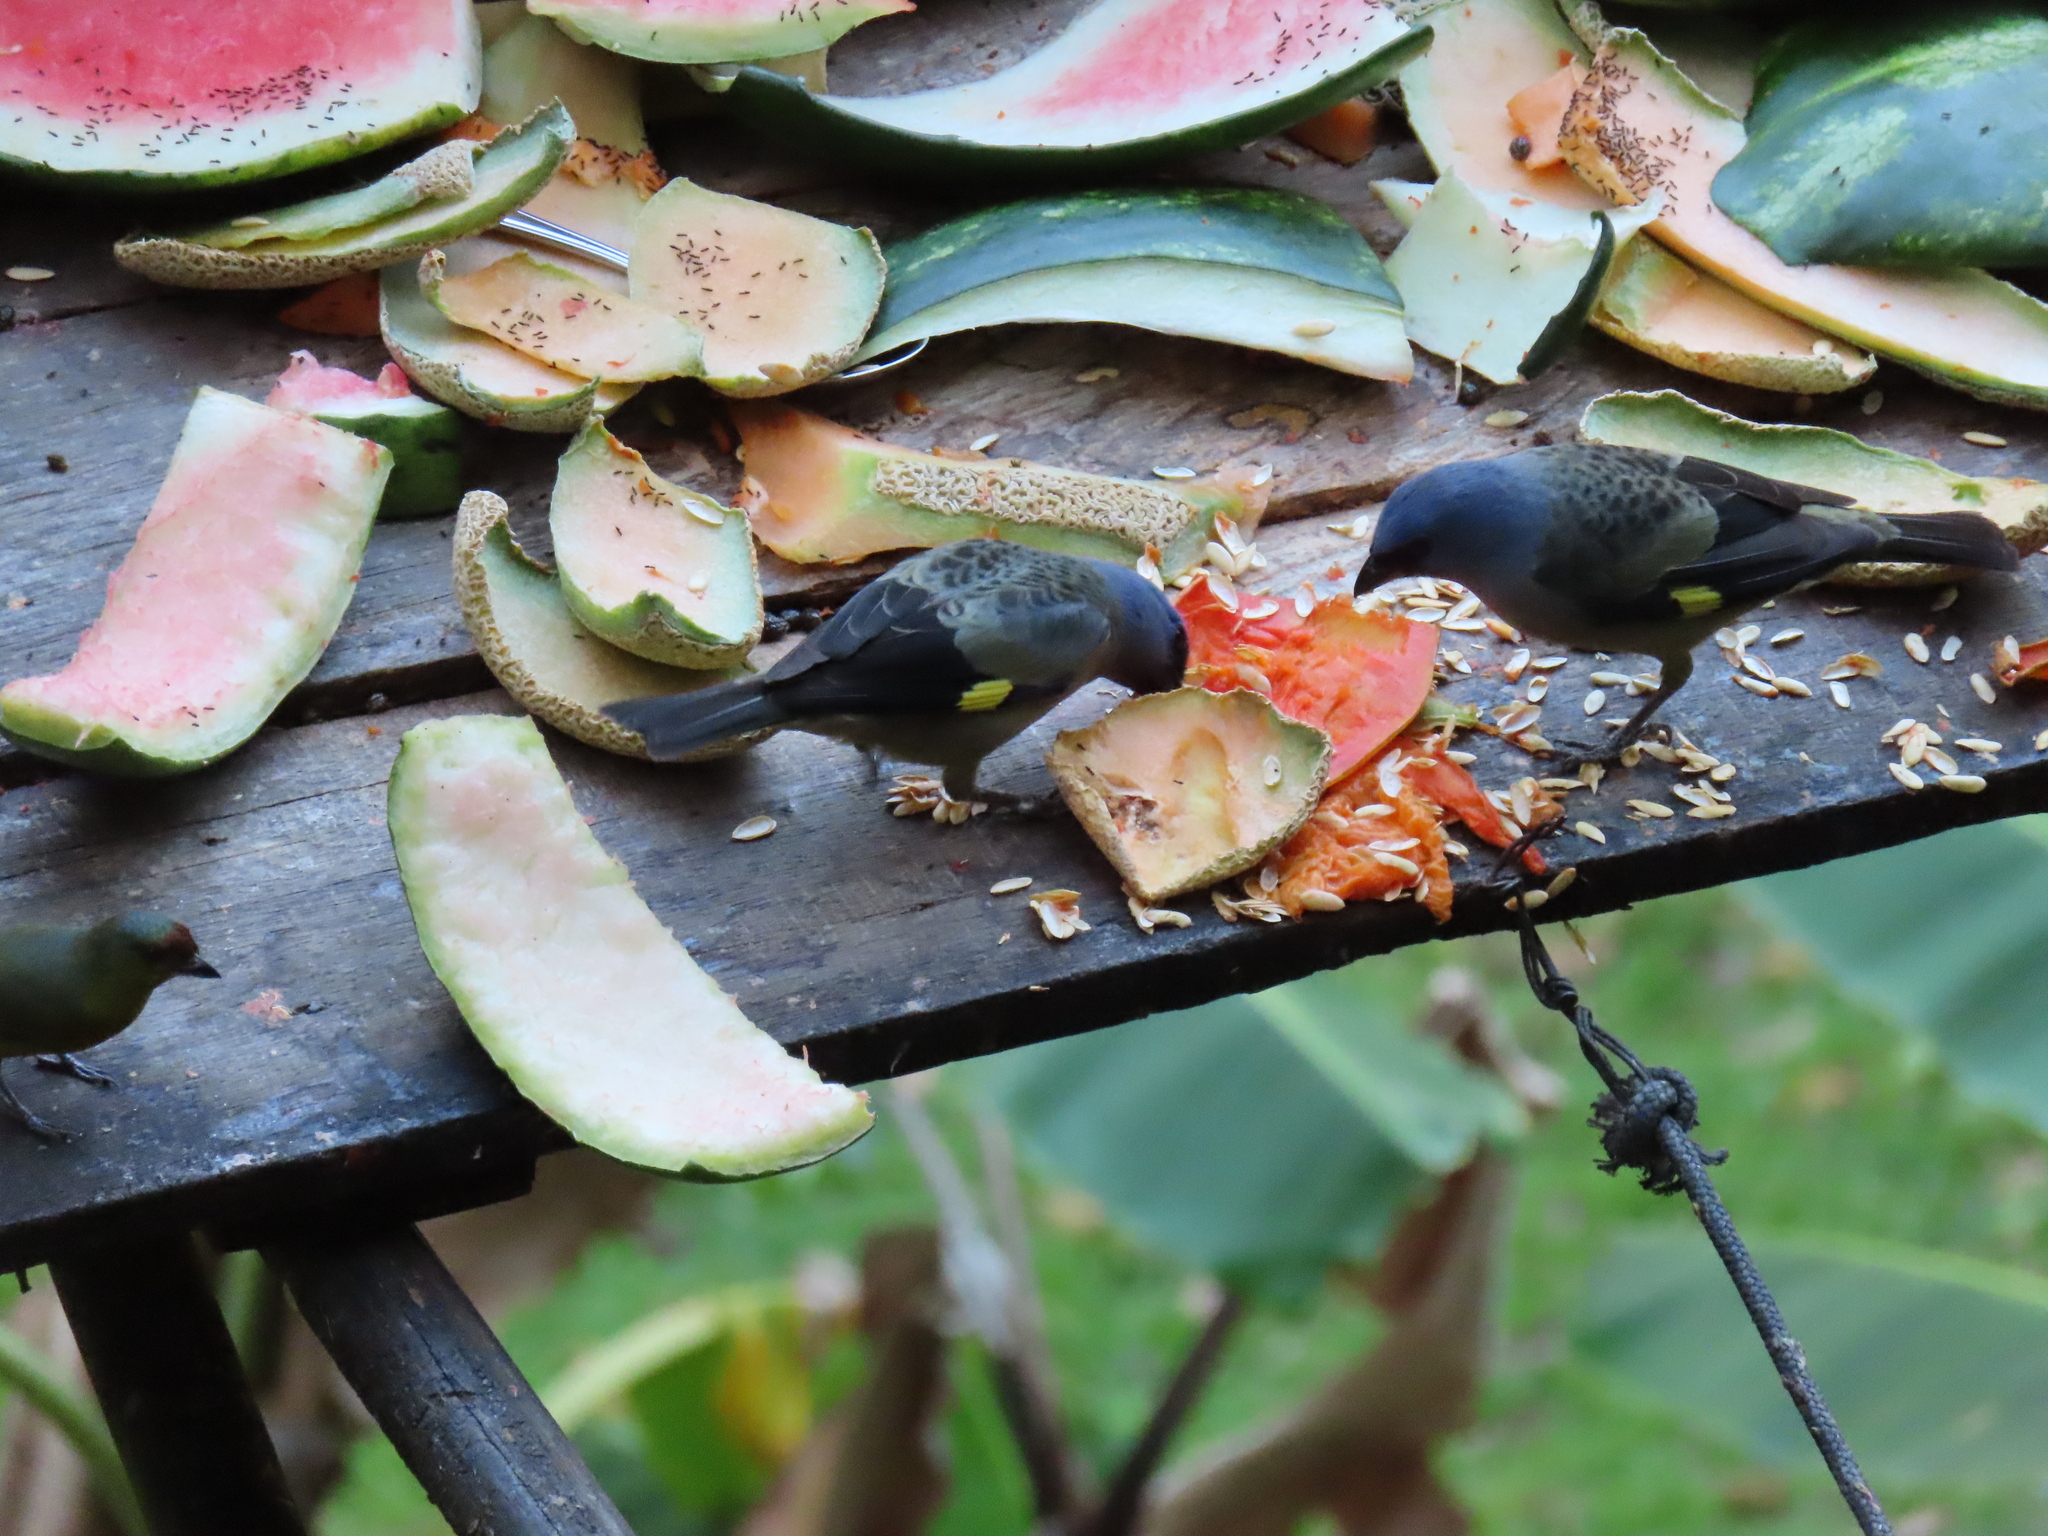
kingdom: Animalia
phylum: Chordata
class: Aves
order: Passeriformes
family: Thraupidae
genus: Thraupis
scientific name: Thraupis abbas
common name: Yellow-winged tanager
